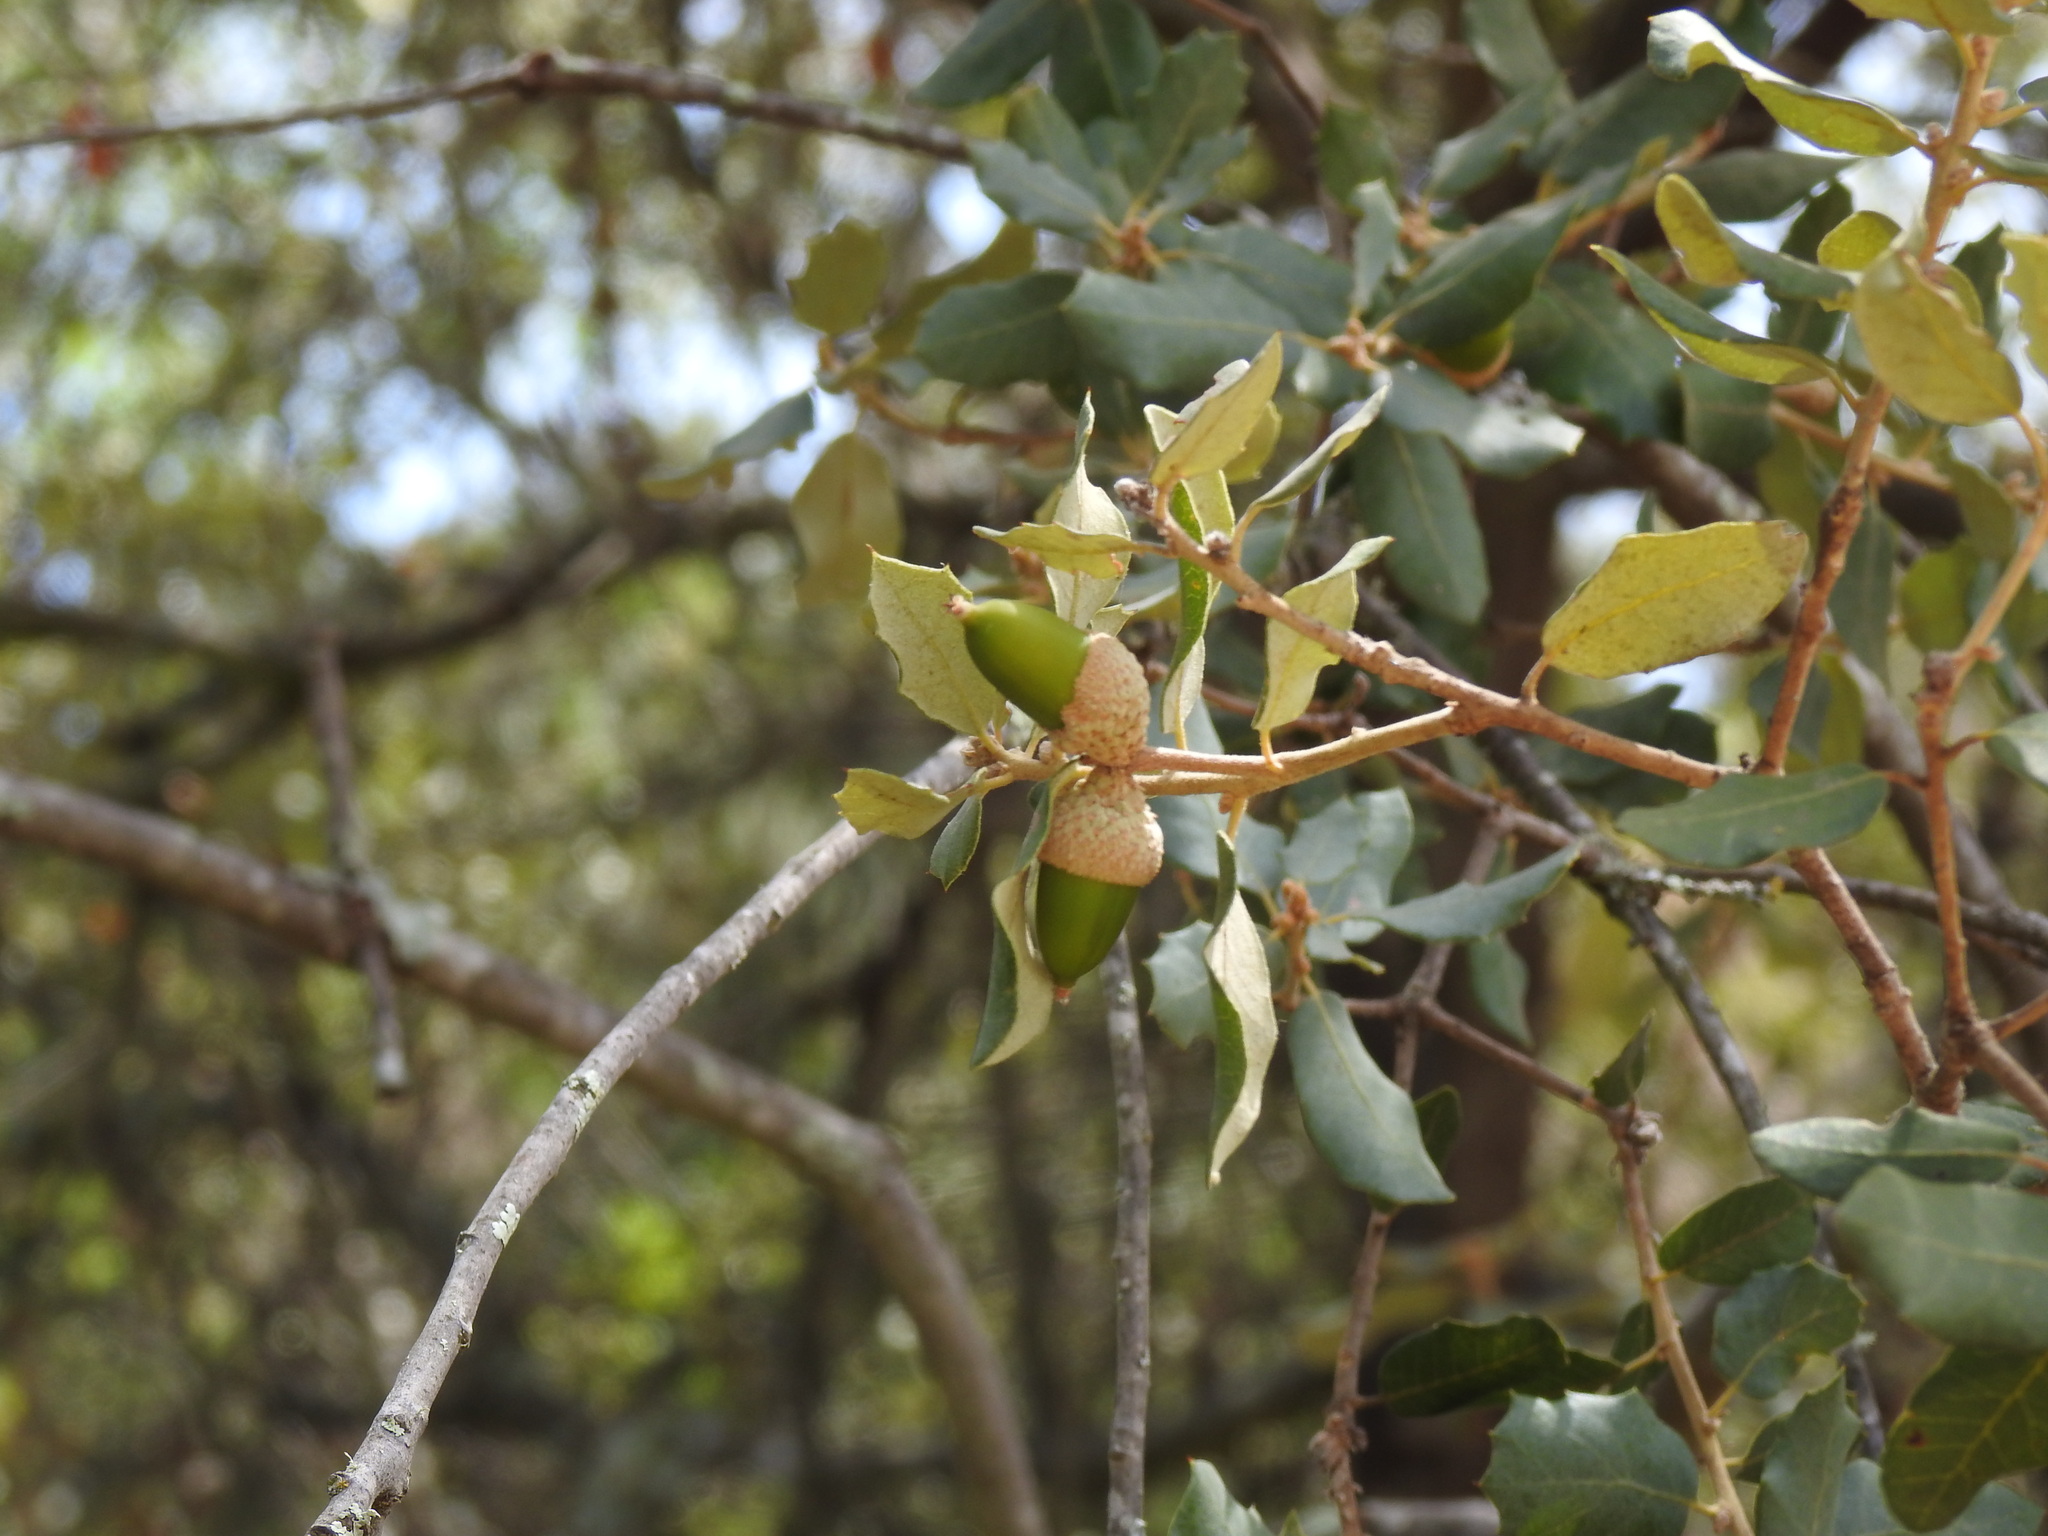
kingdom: Plantae
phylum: Tracheophyta
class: Magnoliopsida
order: Fagales
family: Fagaceae
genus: Quercus
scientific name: Quercus rotundifolia
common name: Holm oak
